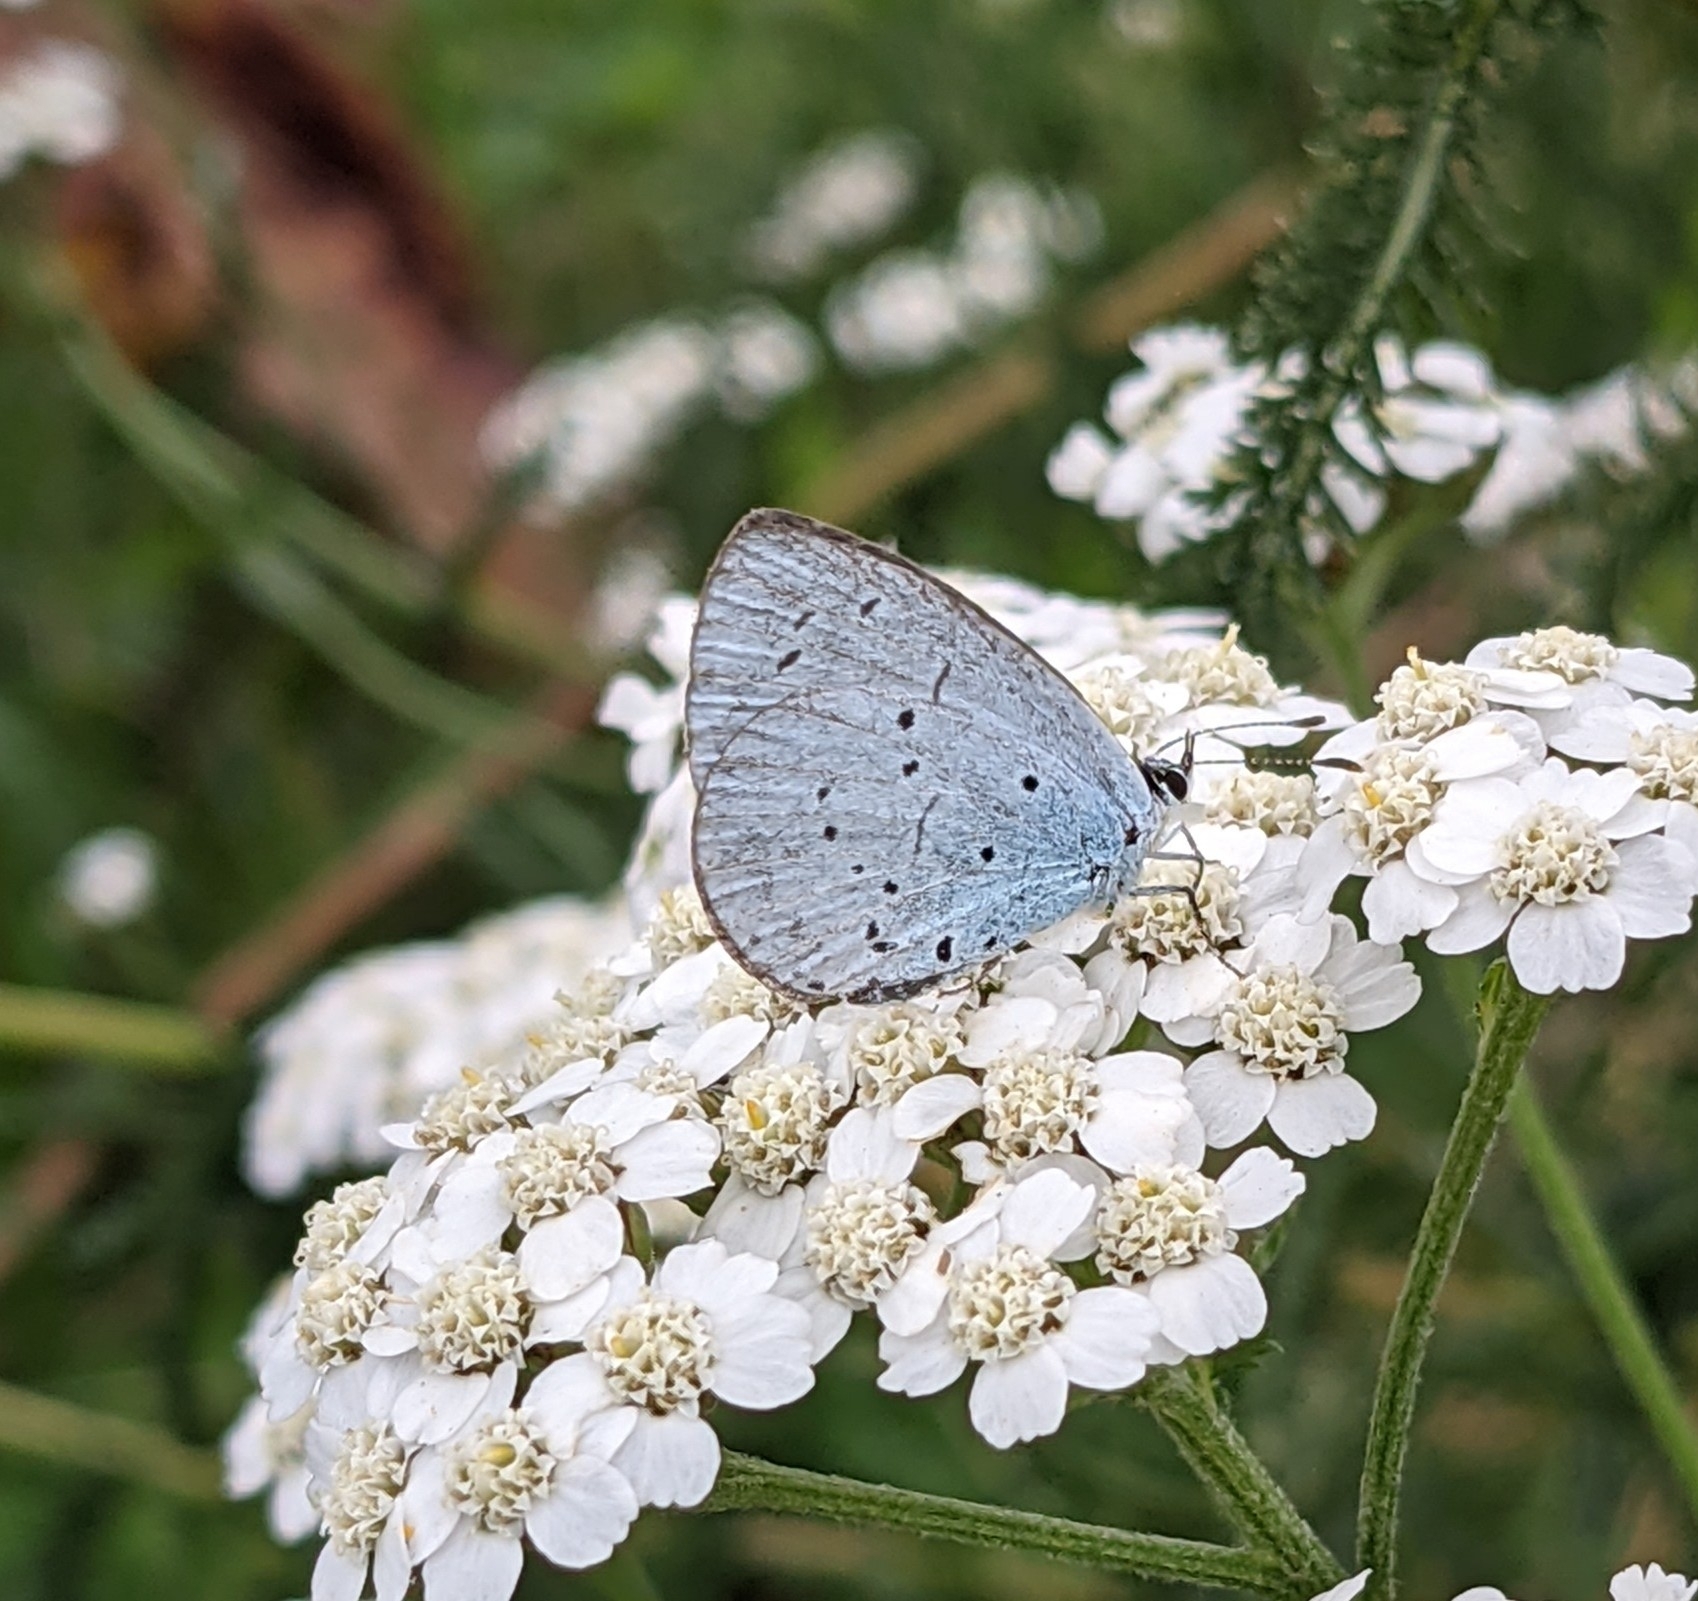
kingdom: Animalia
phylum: Arthropoda
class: Insecta
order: Lepidoptera
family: Lycaenidae
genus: Celastrina
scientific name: Celastrina argiolus
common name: Holly blue
